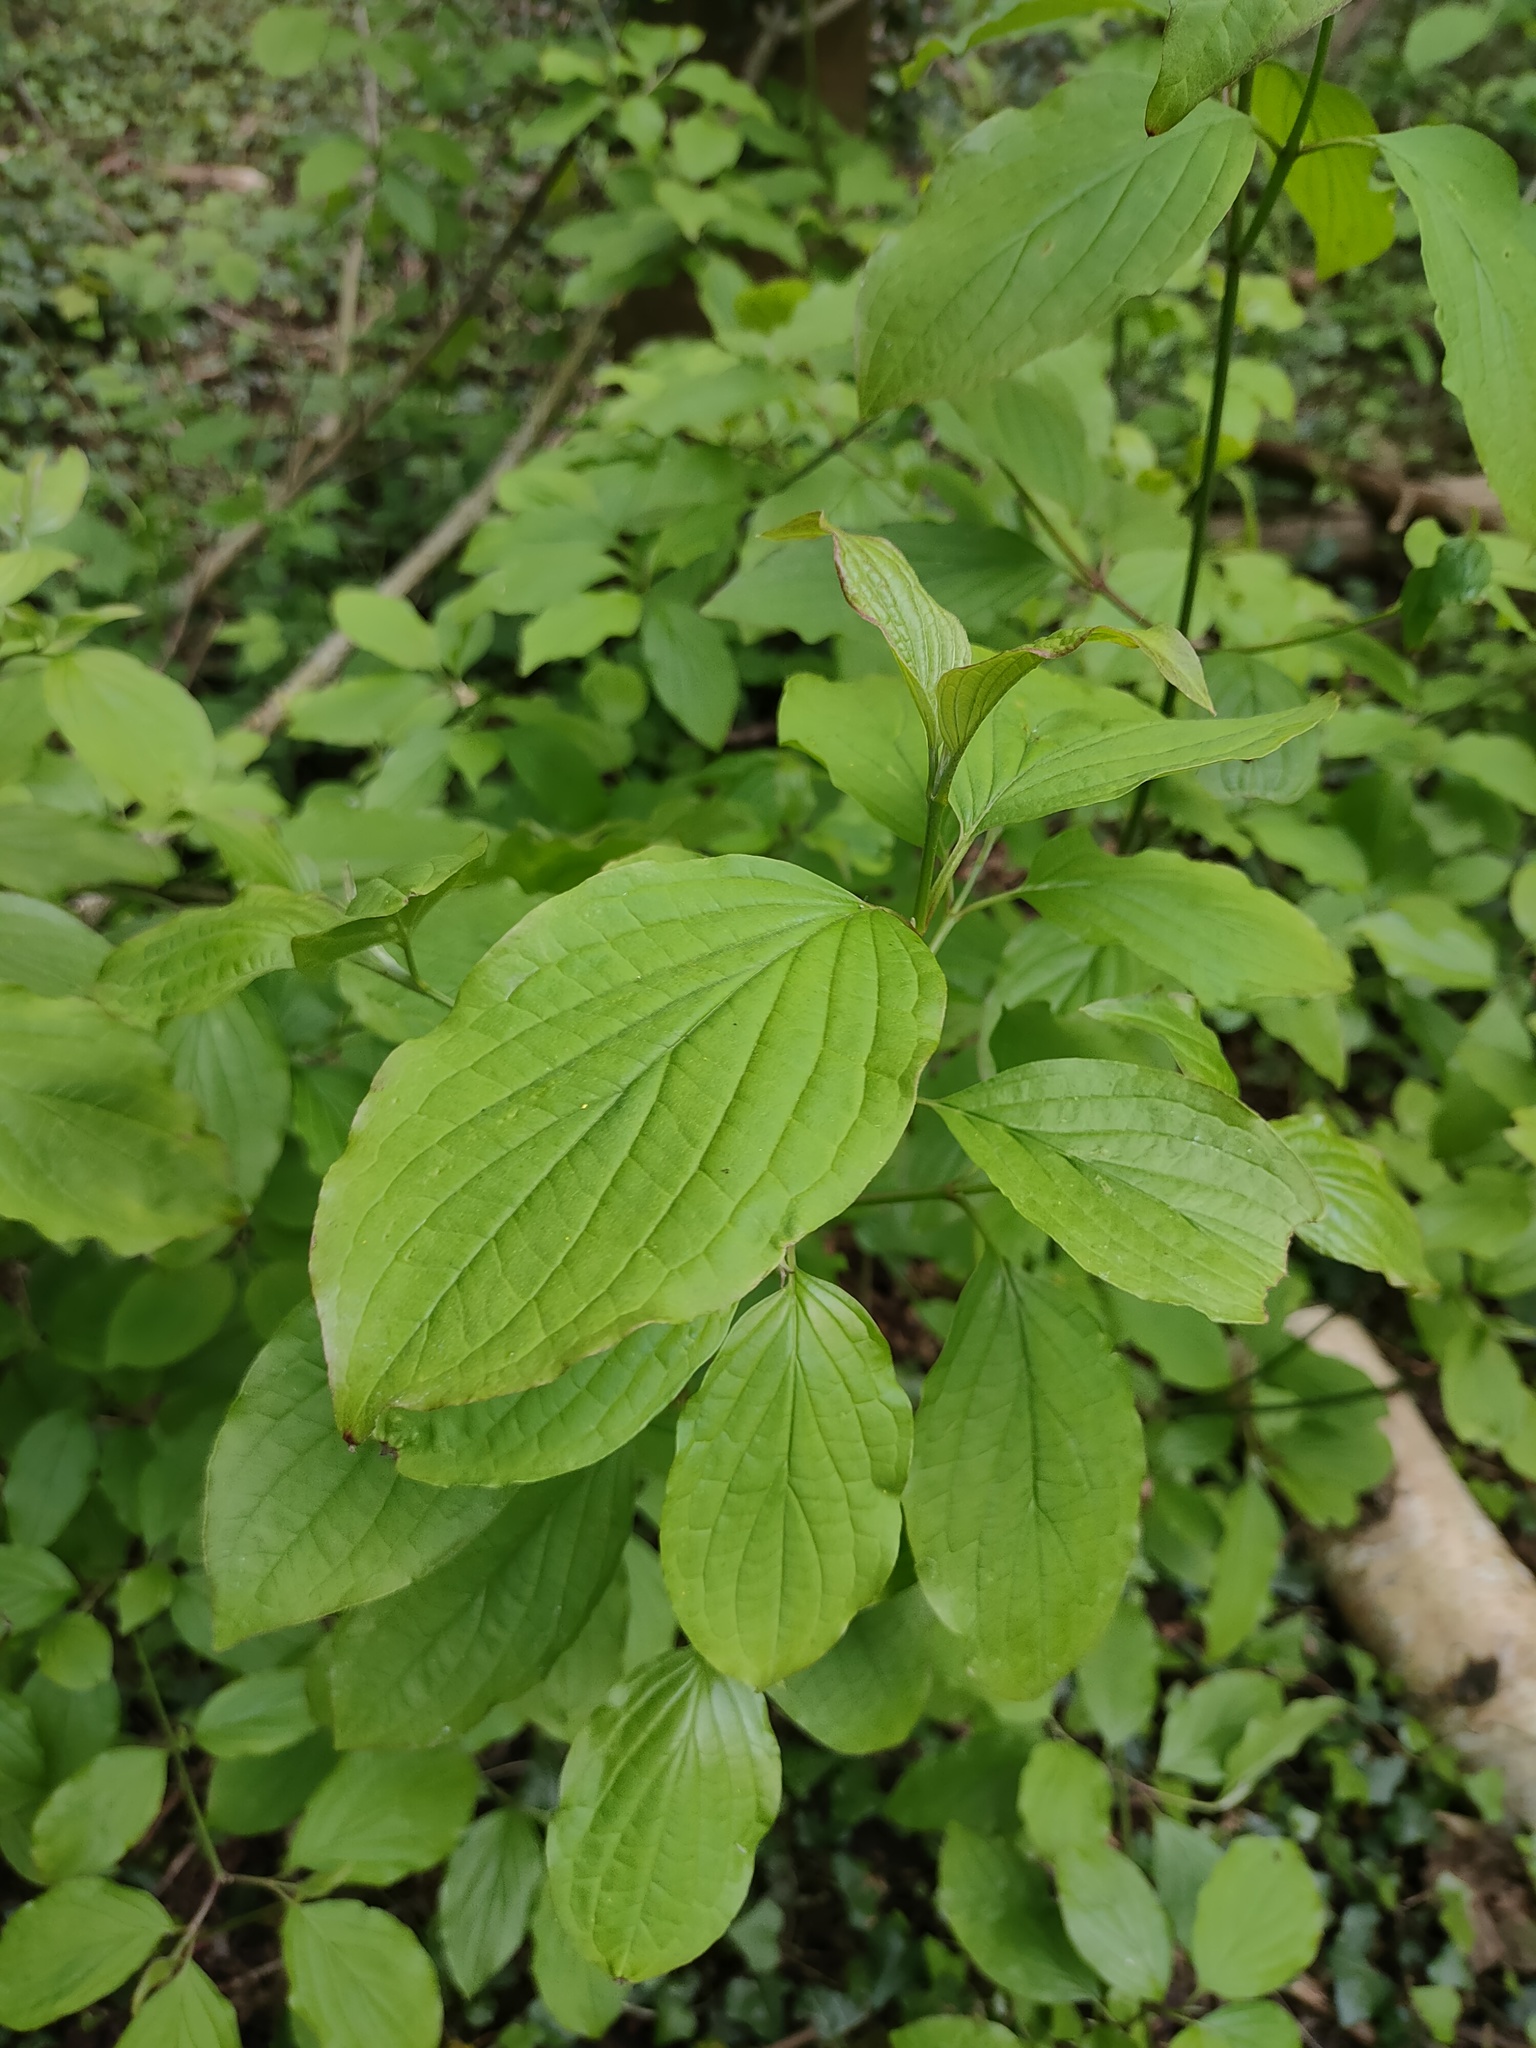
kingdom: Plantae
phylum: Tracheophyta
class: Magnoliopsida
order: Cornales
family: Cornaceae
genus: Cornus
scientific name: Cornus sanguinea
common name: Dogwood
